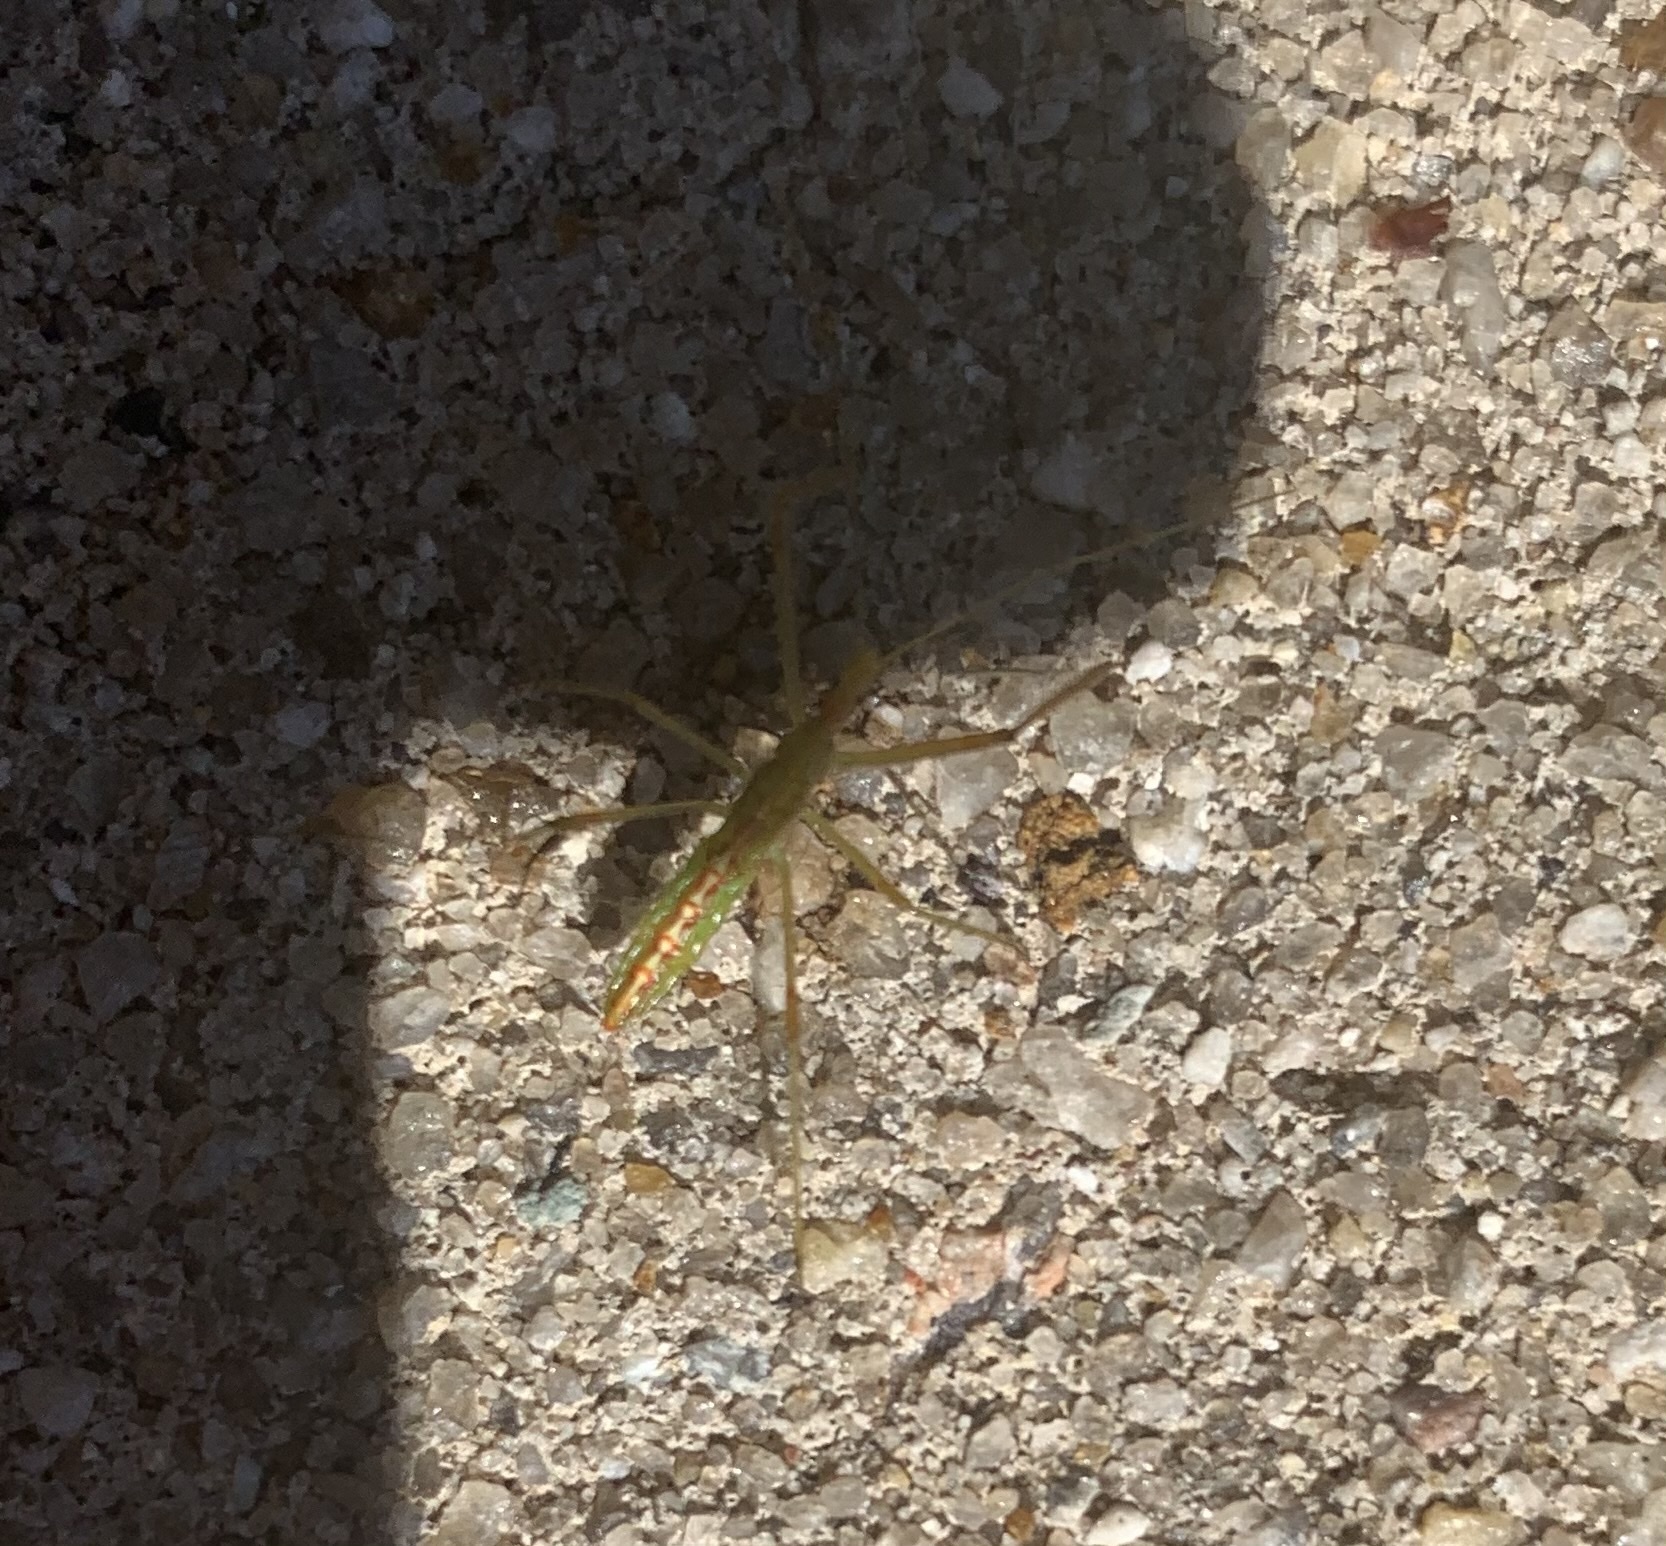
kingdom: Animalia
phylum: Arthropoda
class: Insecta
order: Hemiptera
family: Reduviidae
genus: Zelus
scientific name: Zelus luridus
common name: Pale green assassin bug
